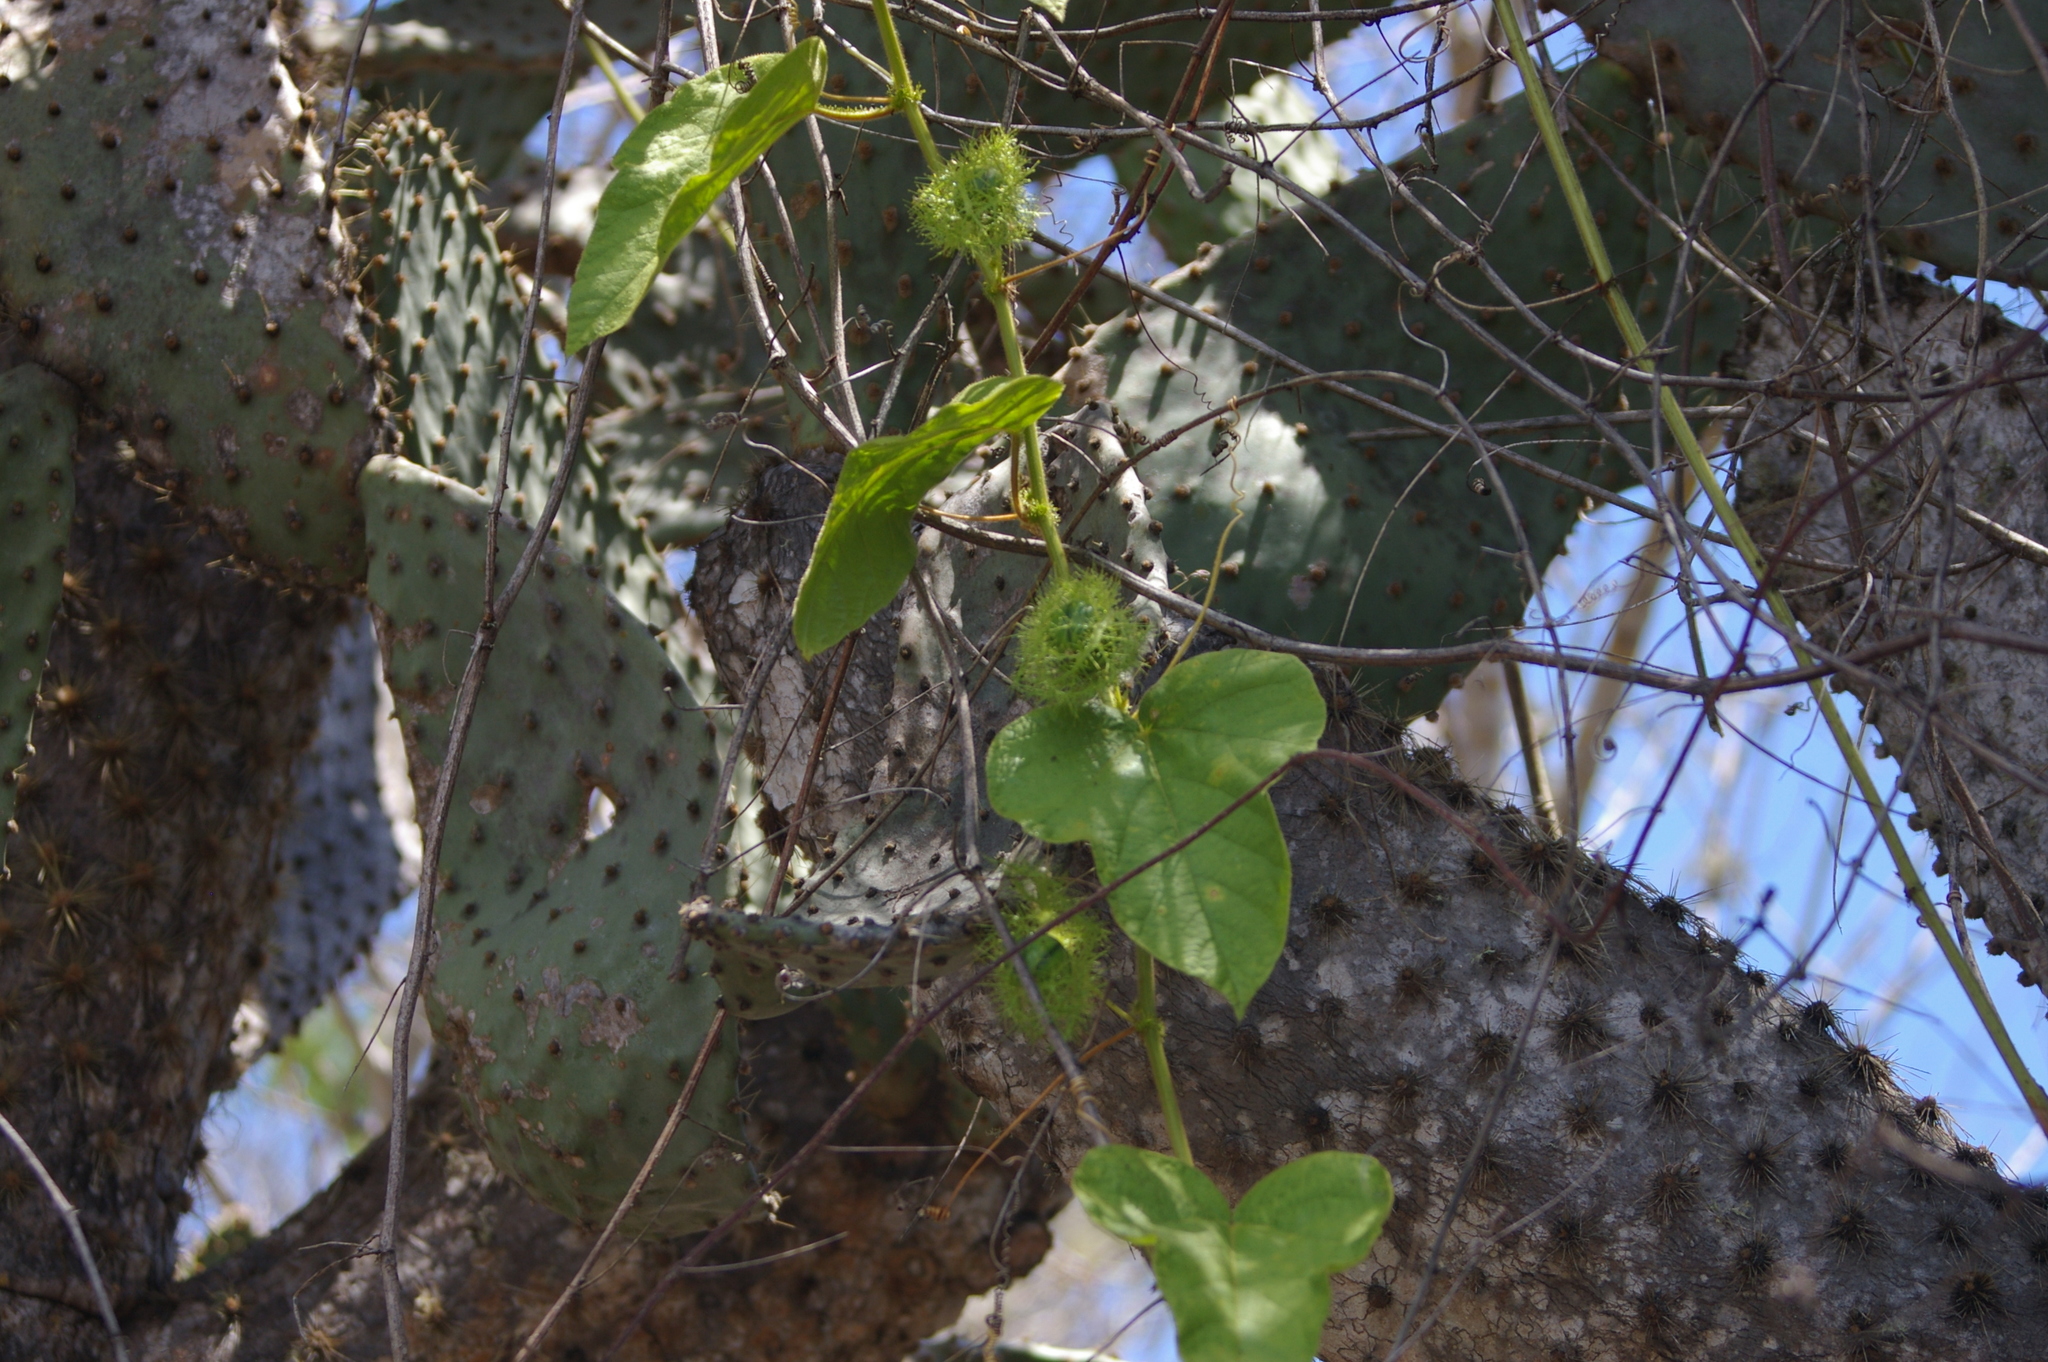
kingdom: Plantae
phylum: Tracheophyta
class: Magnoliopsida
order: Malpighiales
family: Passifloraceae
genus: Passiflora
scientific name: Passiflora vesicaria
